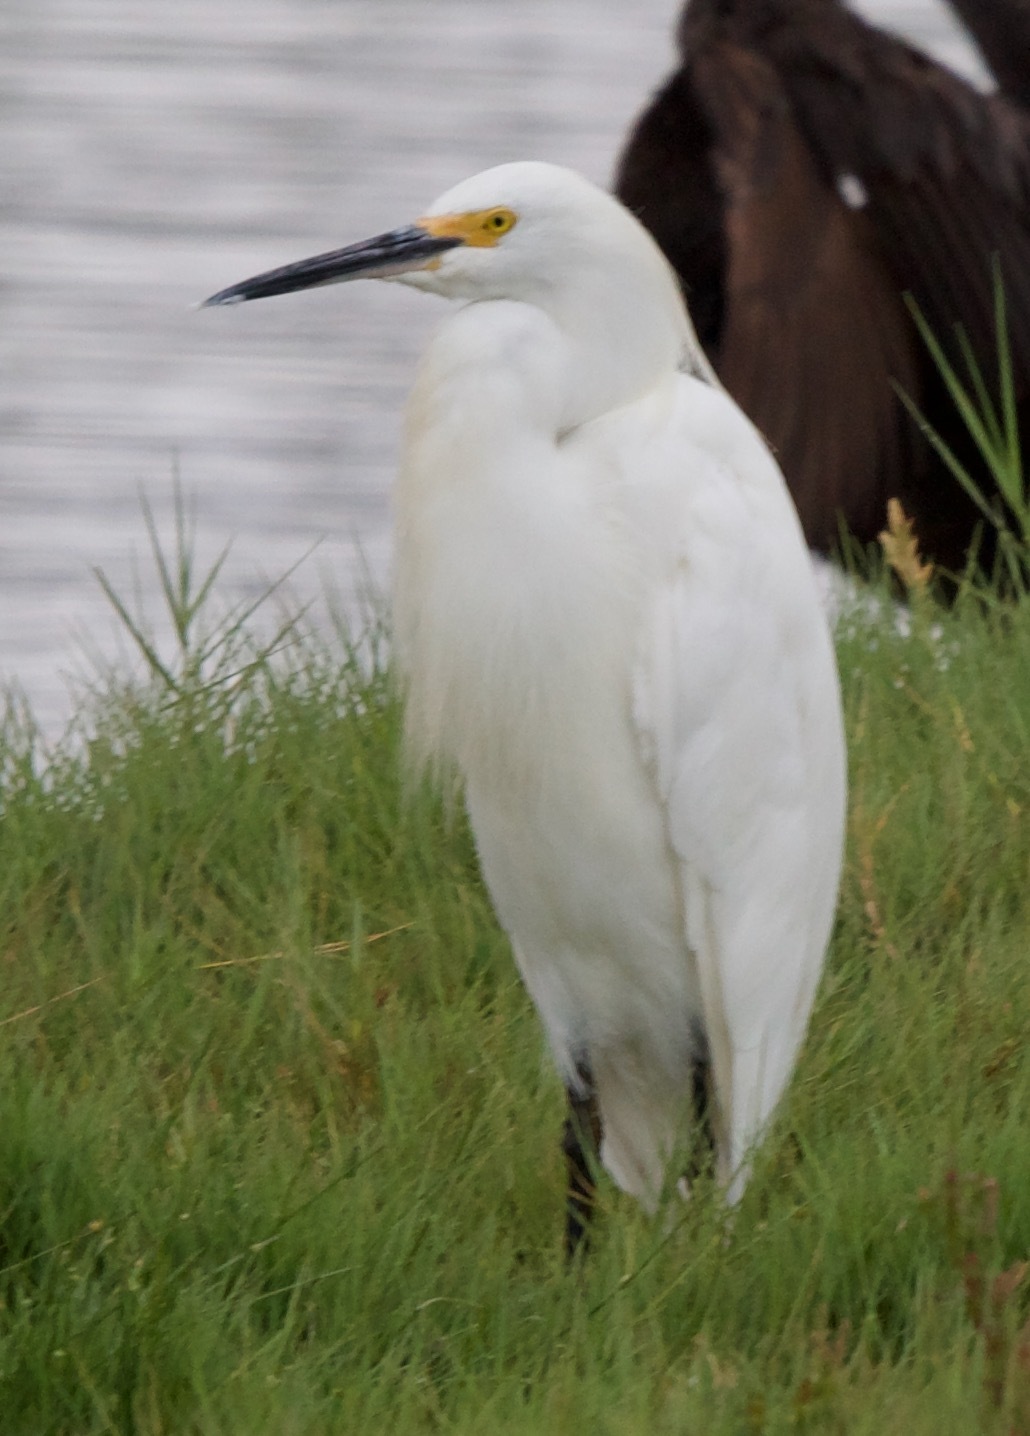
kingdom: Animalia
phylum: Chordata
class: Aves
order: Pelecaniformes
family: Ardeidae
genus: Egretta
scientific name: Egretta thula
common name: Snowy egret
